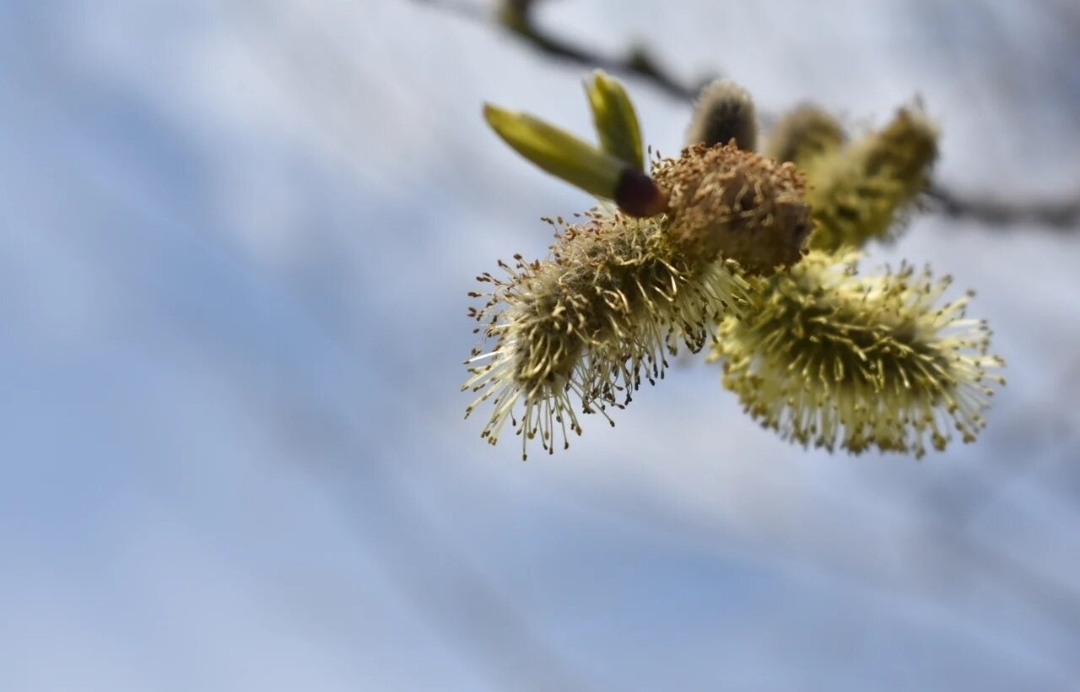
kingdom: Plantae
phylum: Tracheophyta
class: Magnoliopsida
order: Malpighiales
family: Salicaceae
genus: Salix
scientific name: Salix caprea
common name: Goat willow
